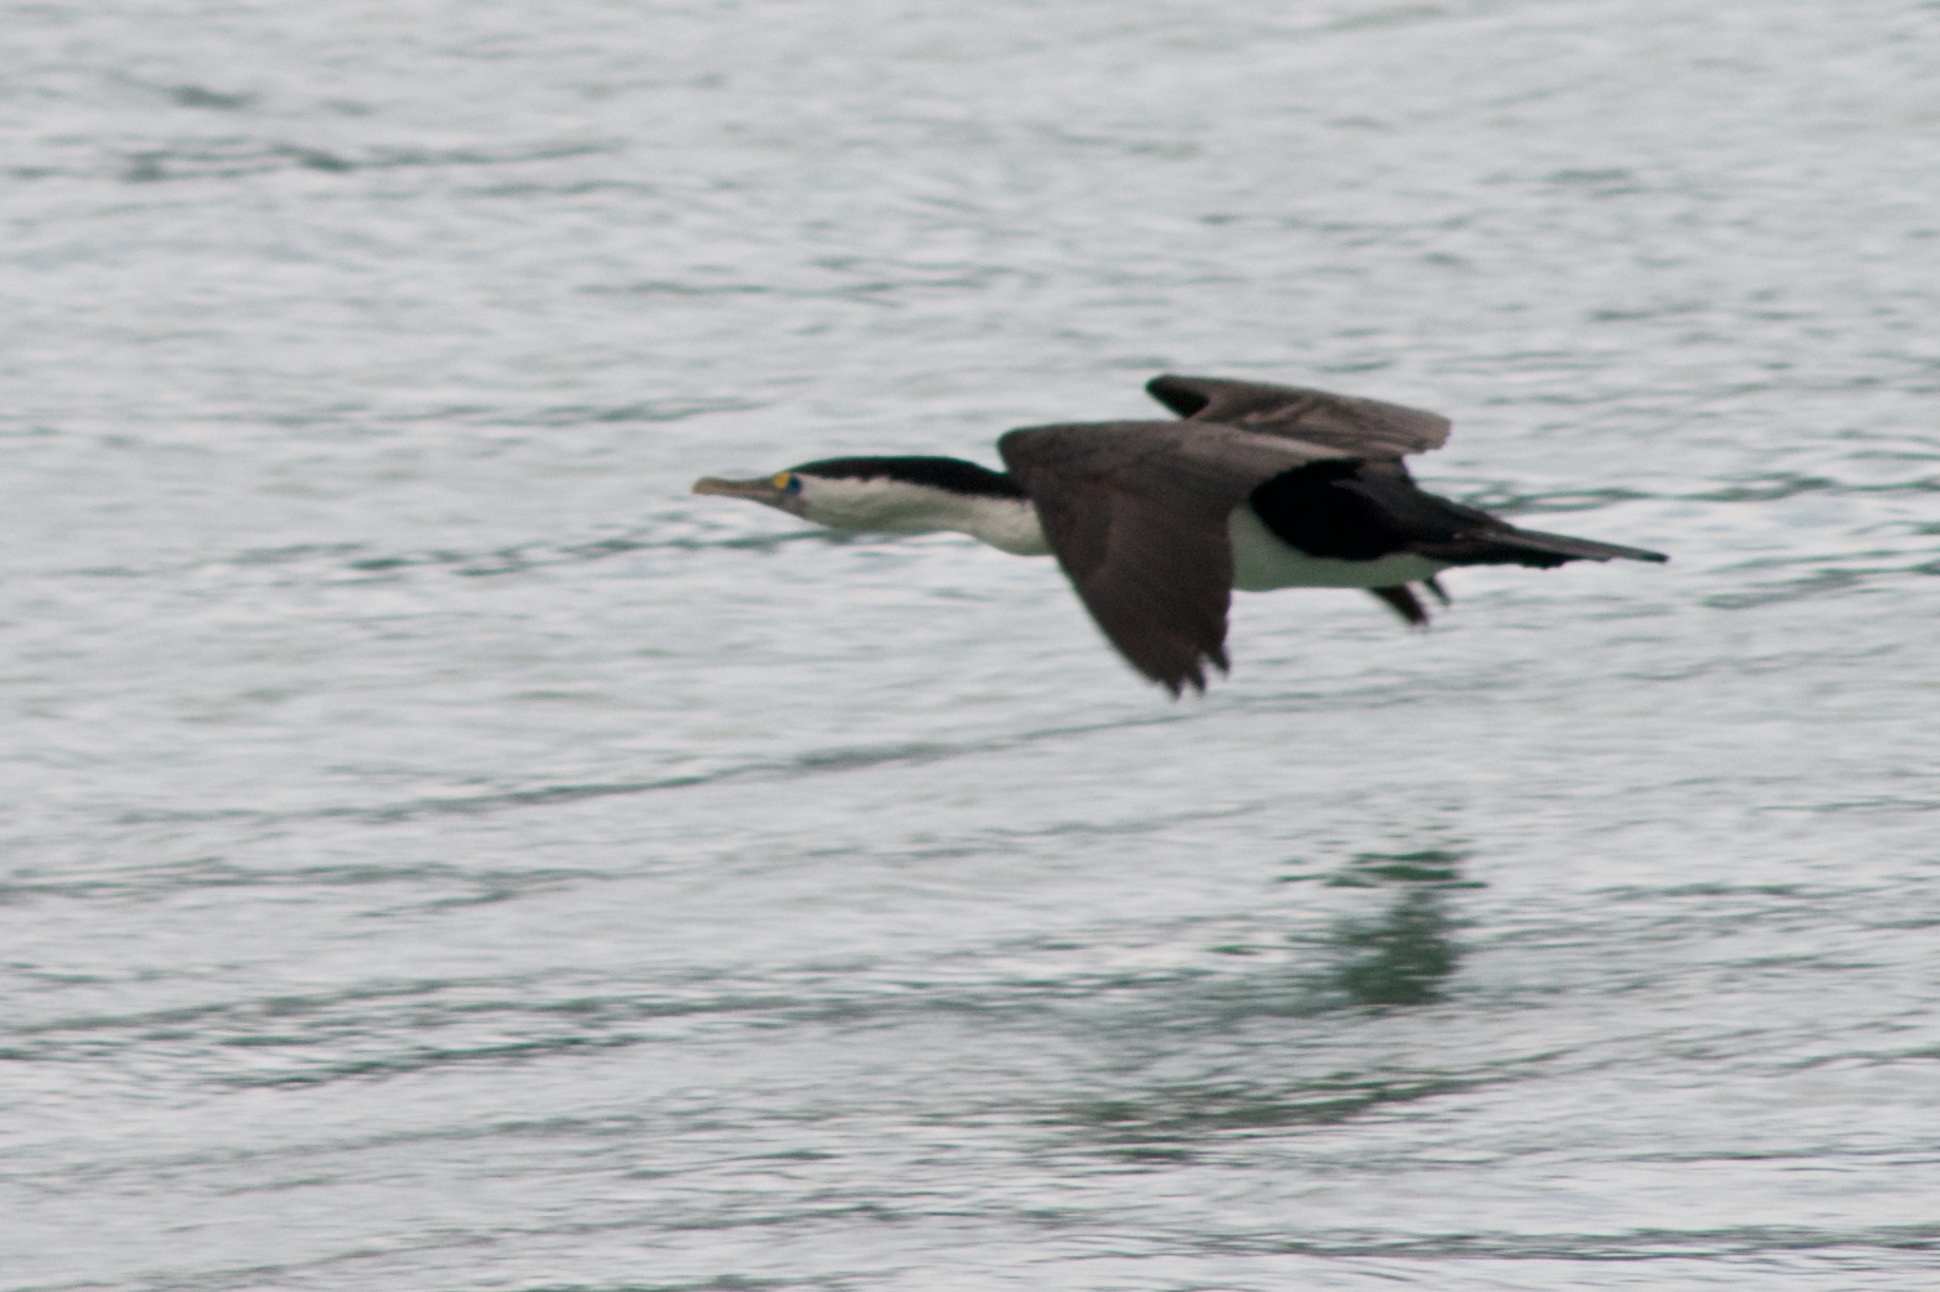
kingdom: Animalia
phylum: Chordata
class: Aves
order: Suliformes
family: Phalacrocoracidae
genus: Phalacrocorax
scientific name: Phalacrocorax varius
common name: Pied cormorant
